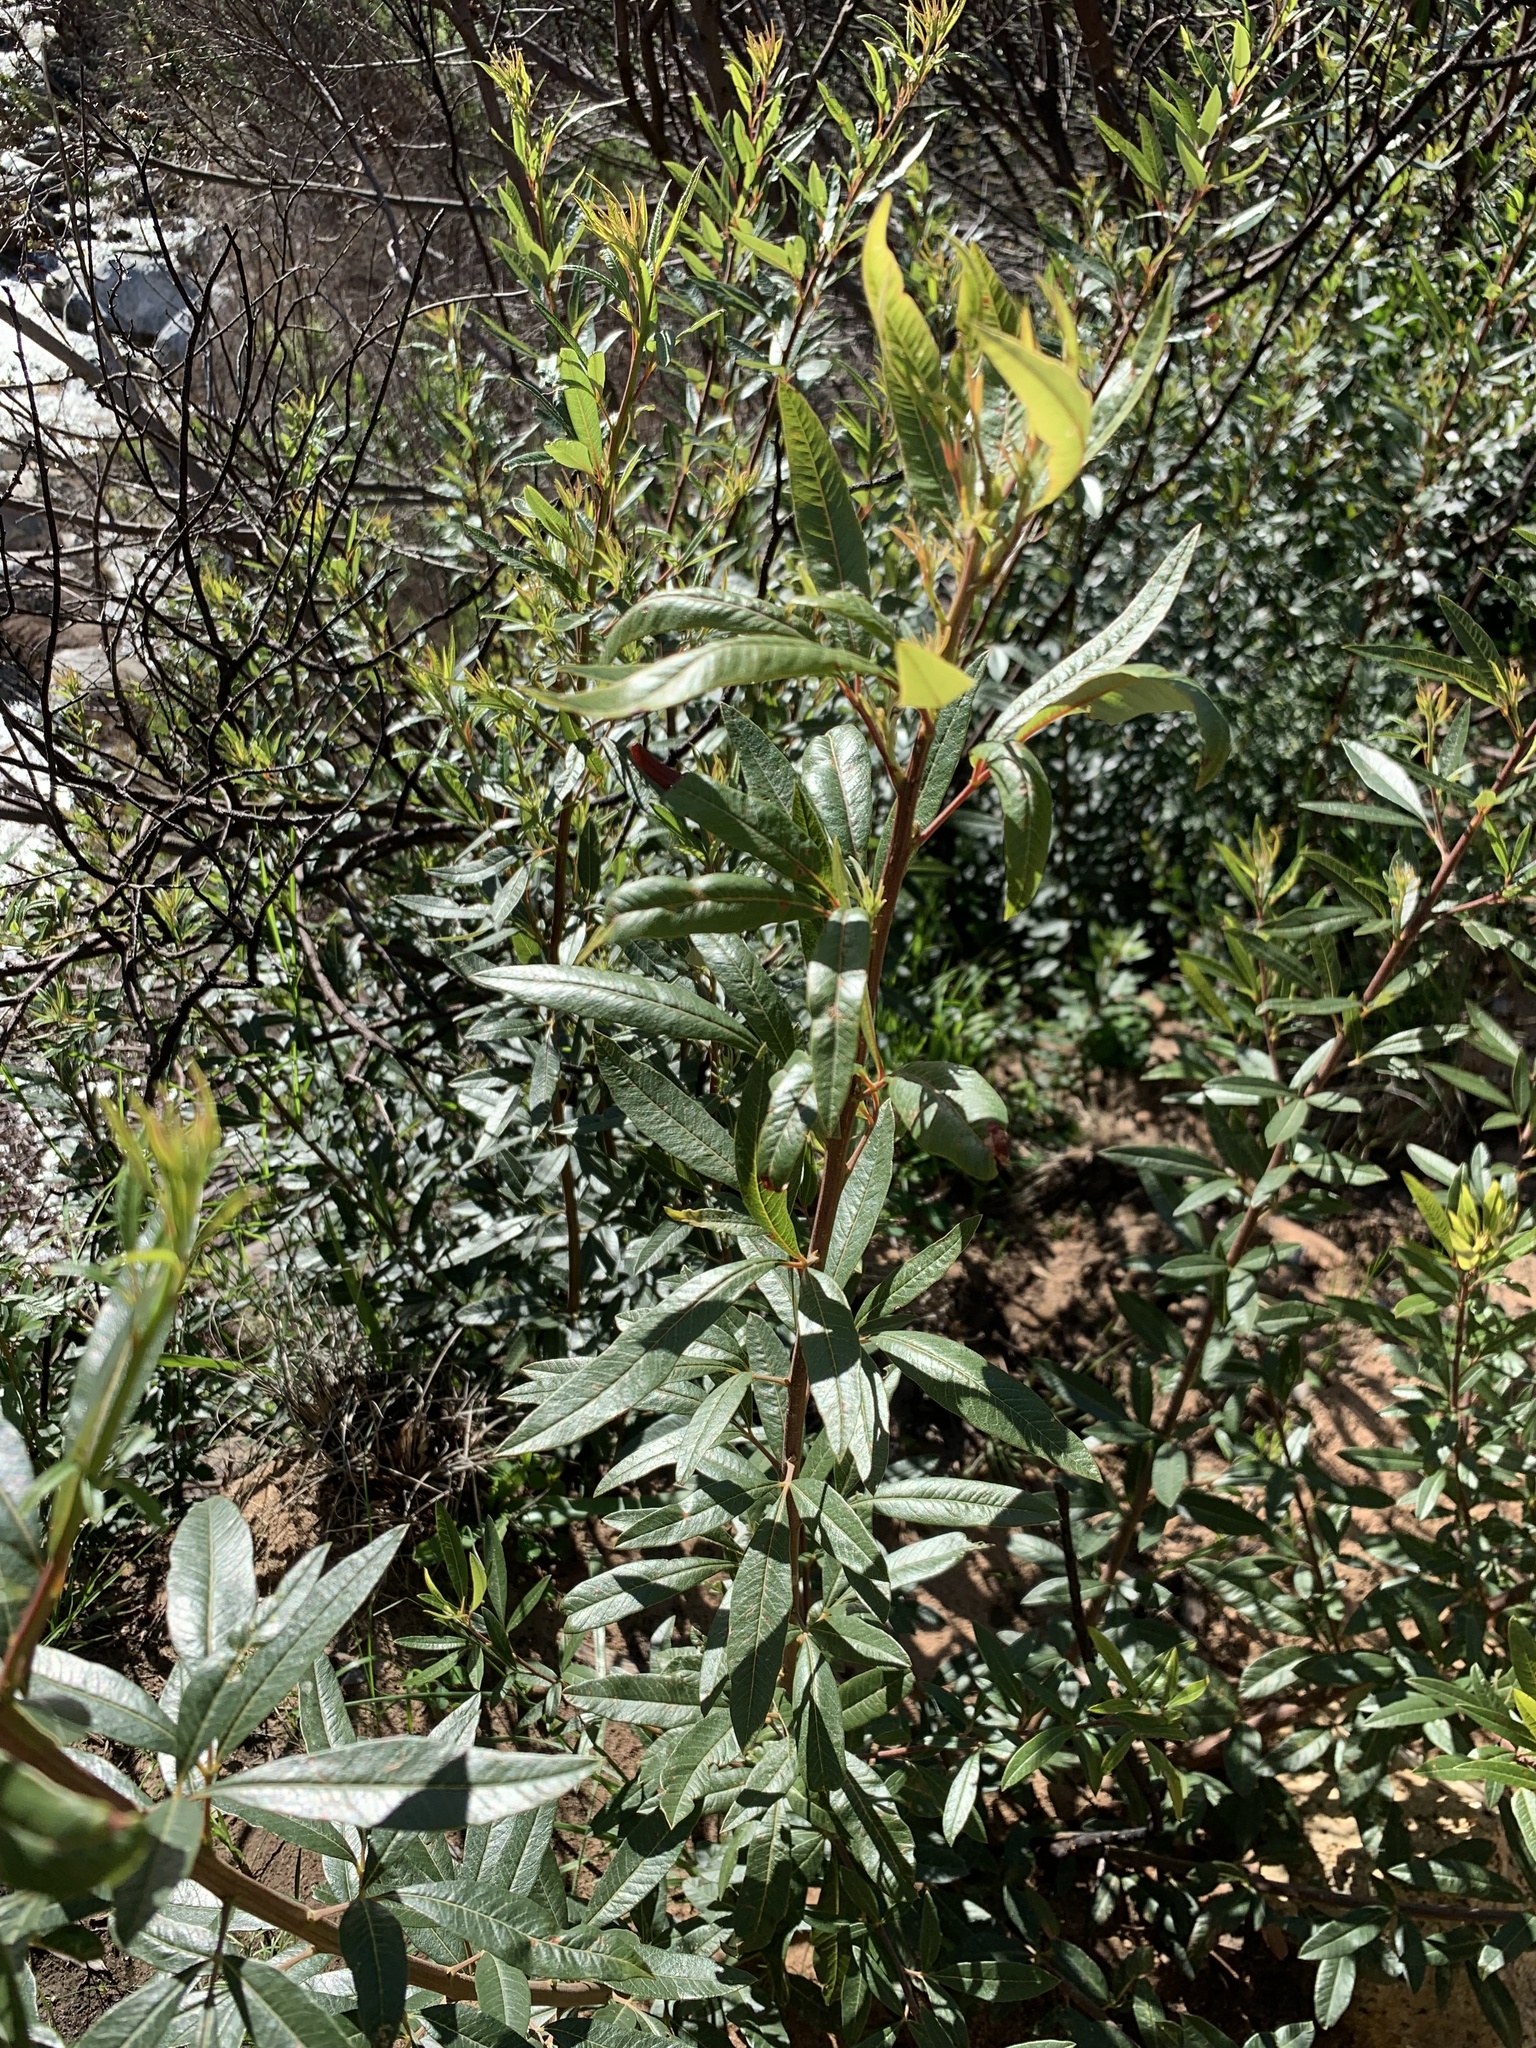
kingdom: Plantae
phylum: Tracheophyta
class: Magnoliopsida
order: Sapindales
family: Anacardiaceae
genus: Searsia
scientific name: Searsia angustifolia
